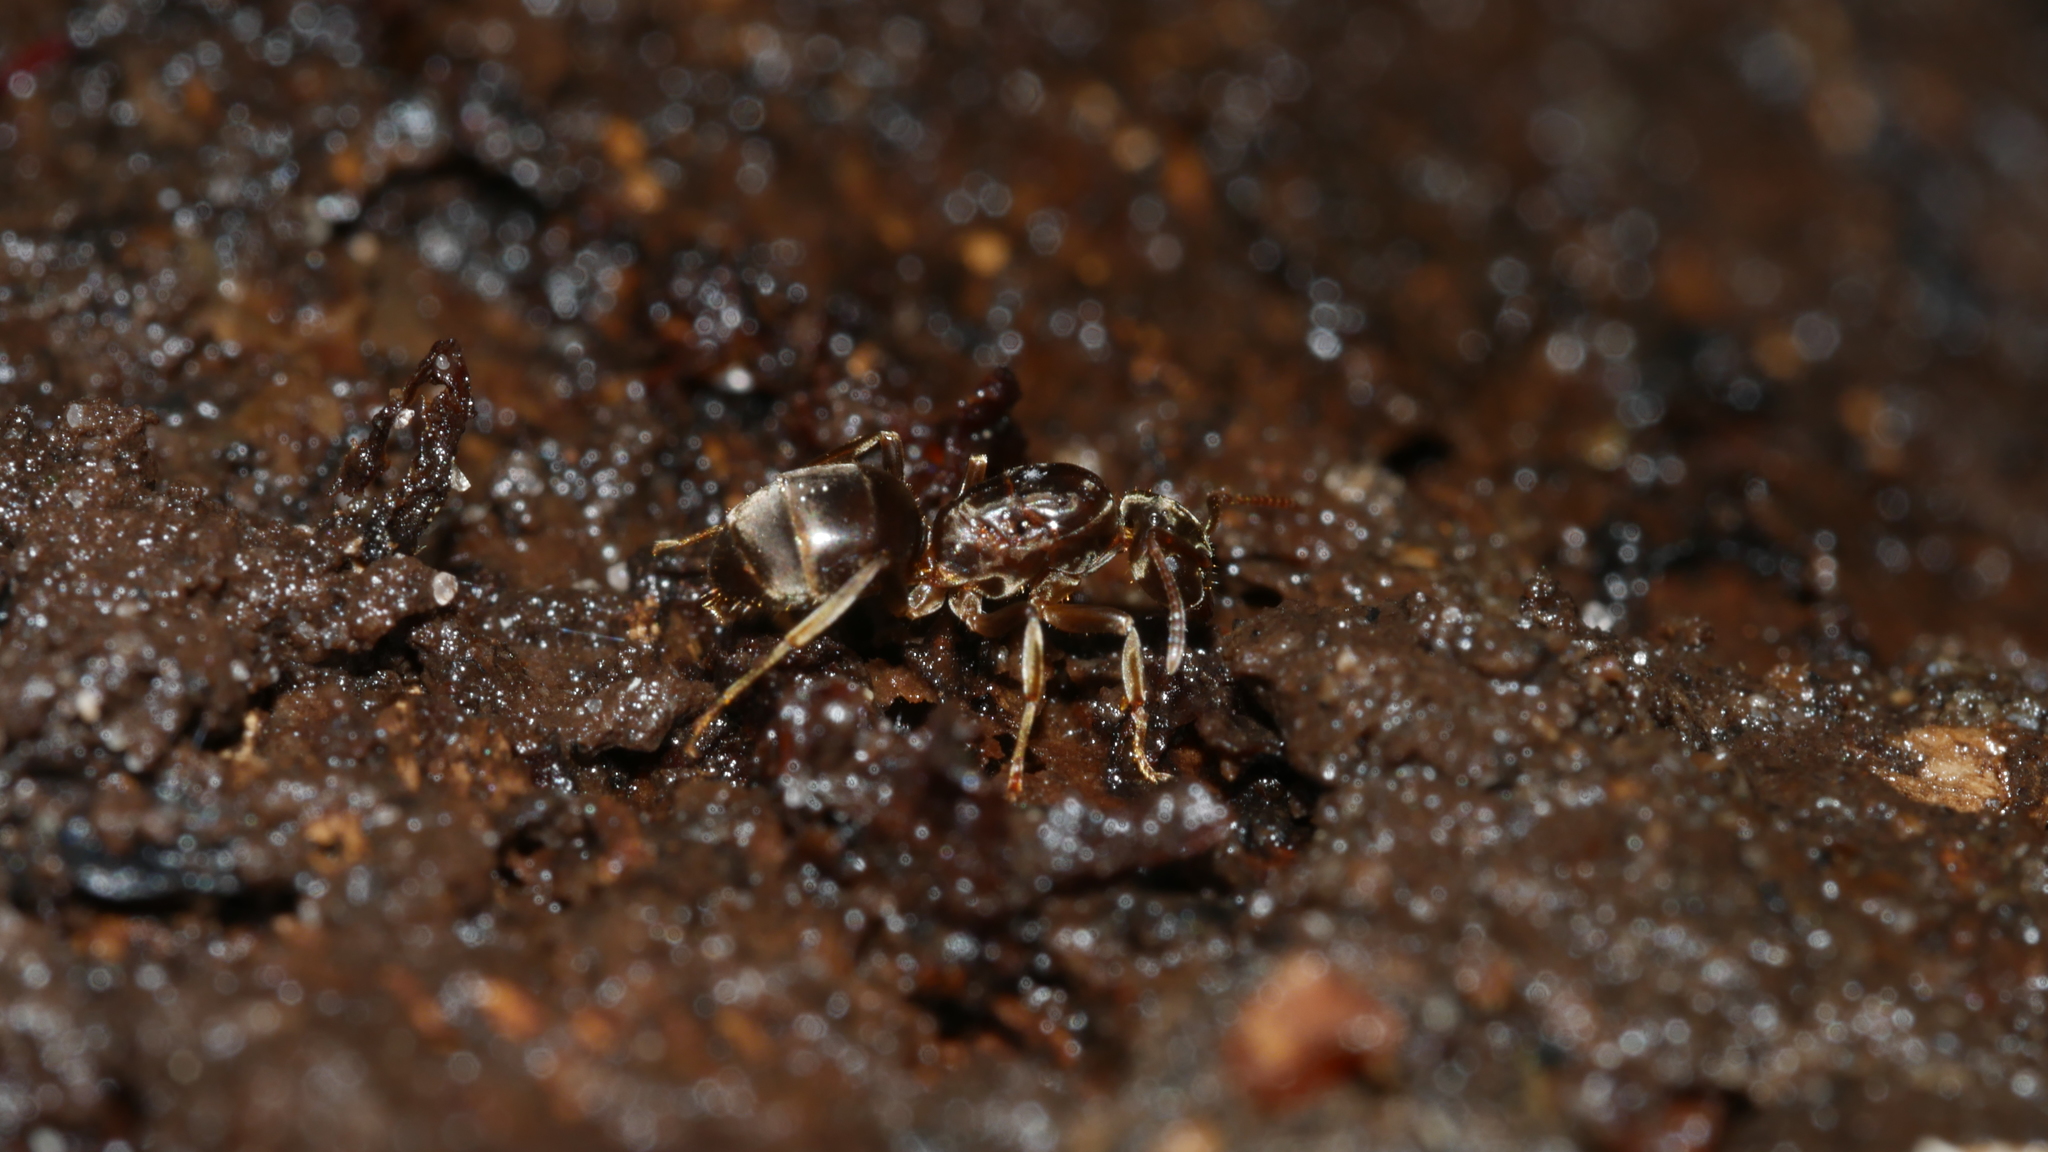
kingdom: Animalia
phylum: Arthropoda
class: Insecta
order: Hymenoptera
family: Formicidae
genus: Lasius
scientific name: Lasius aphidicola
